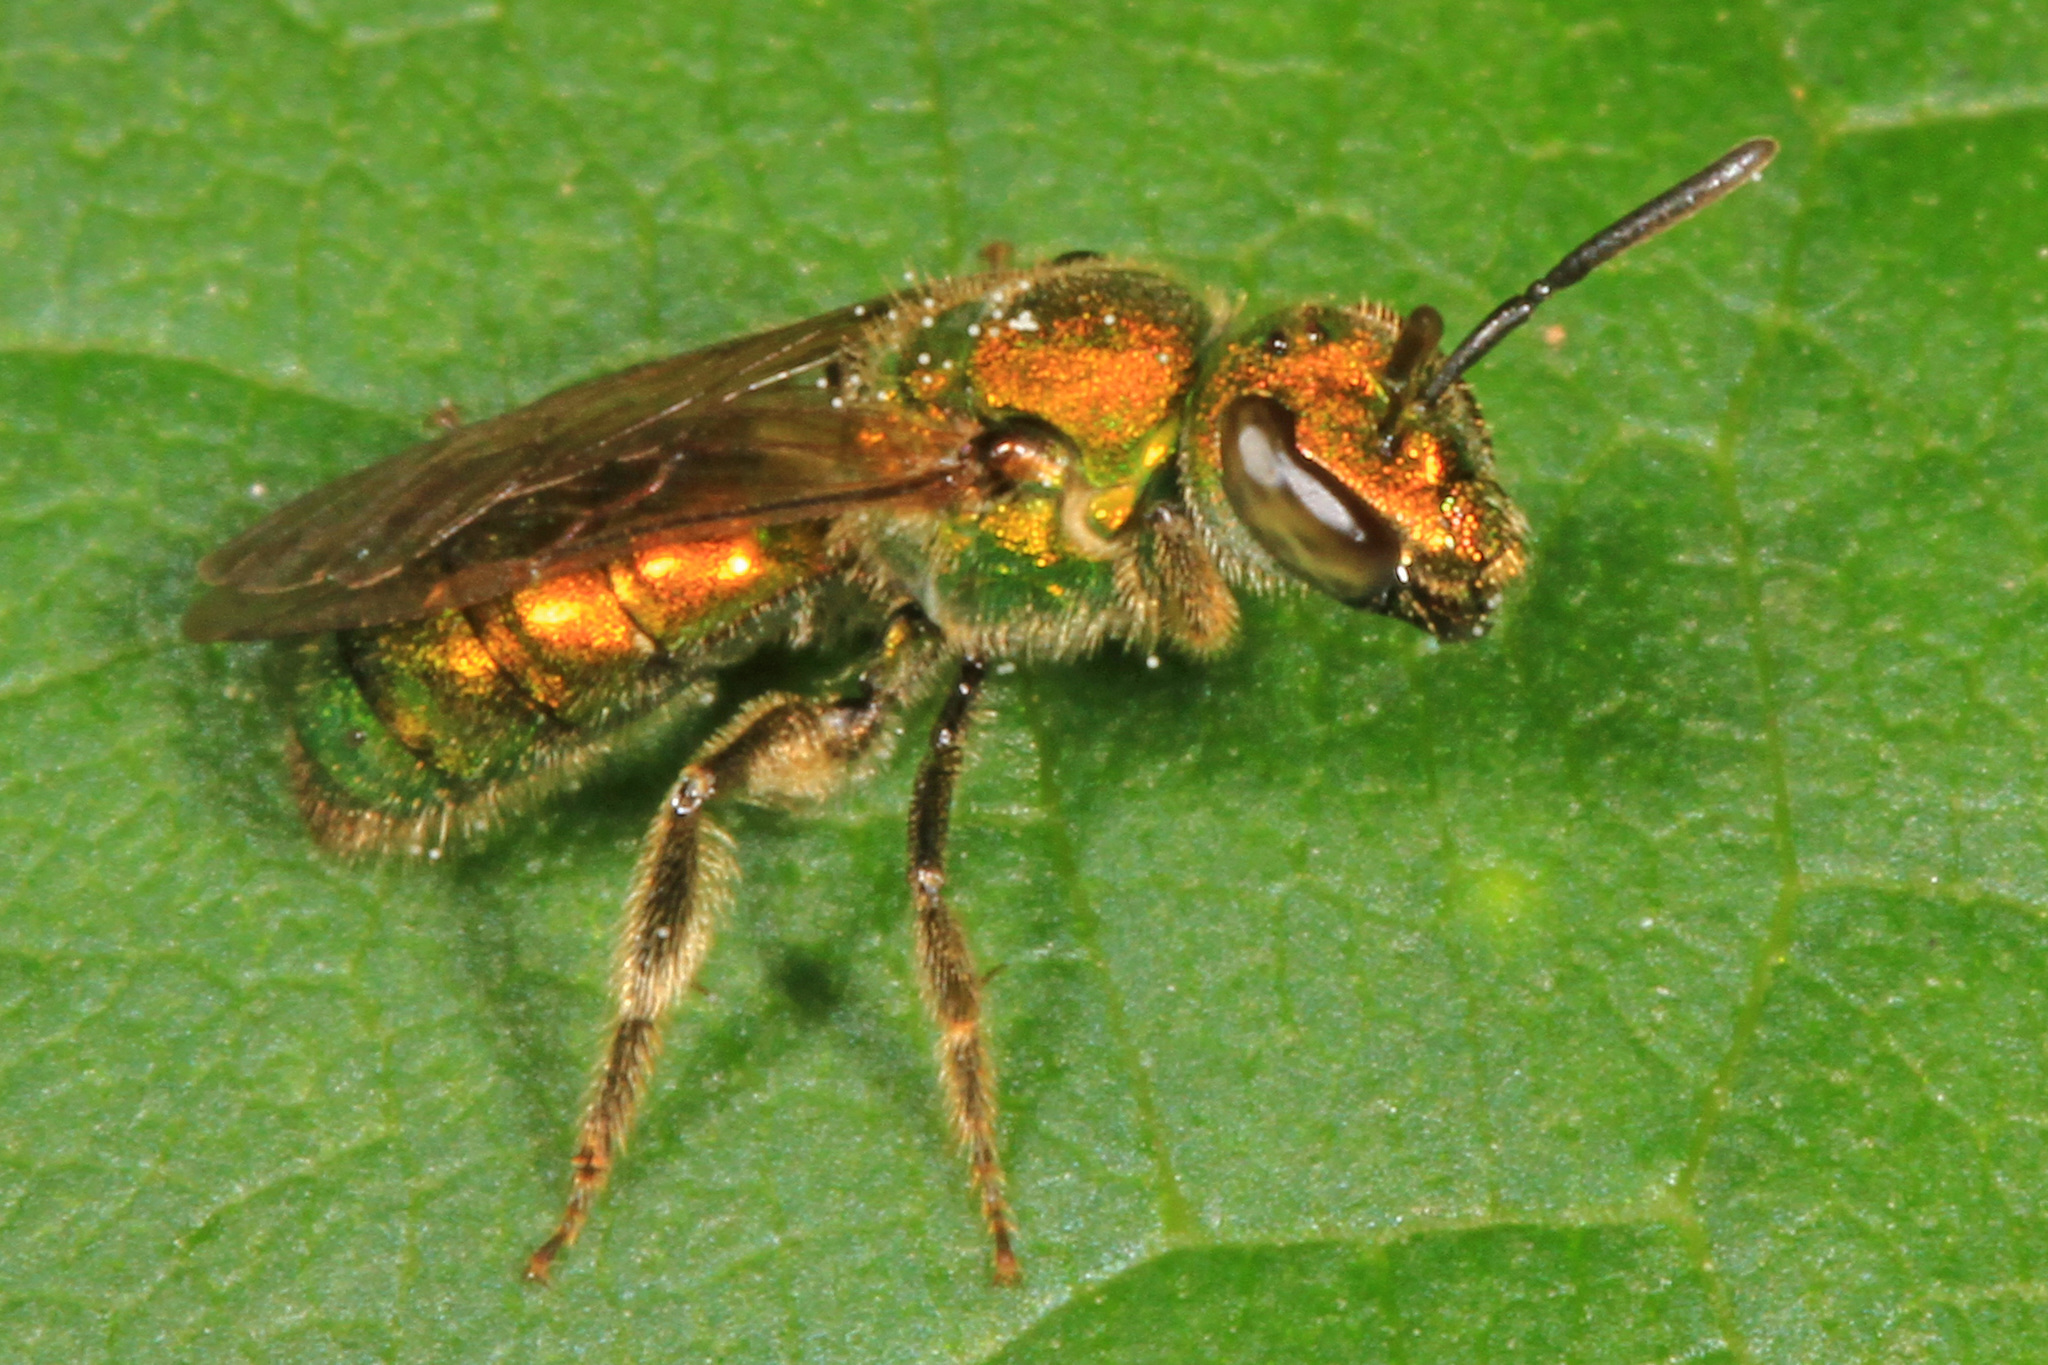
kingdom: Animalia
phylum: Arthropoda
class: Insecta
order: Hymenoptera
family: Halictidae
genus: Augochlora
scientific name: Augochlora pura
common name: Pure green sweat bee
